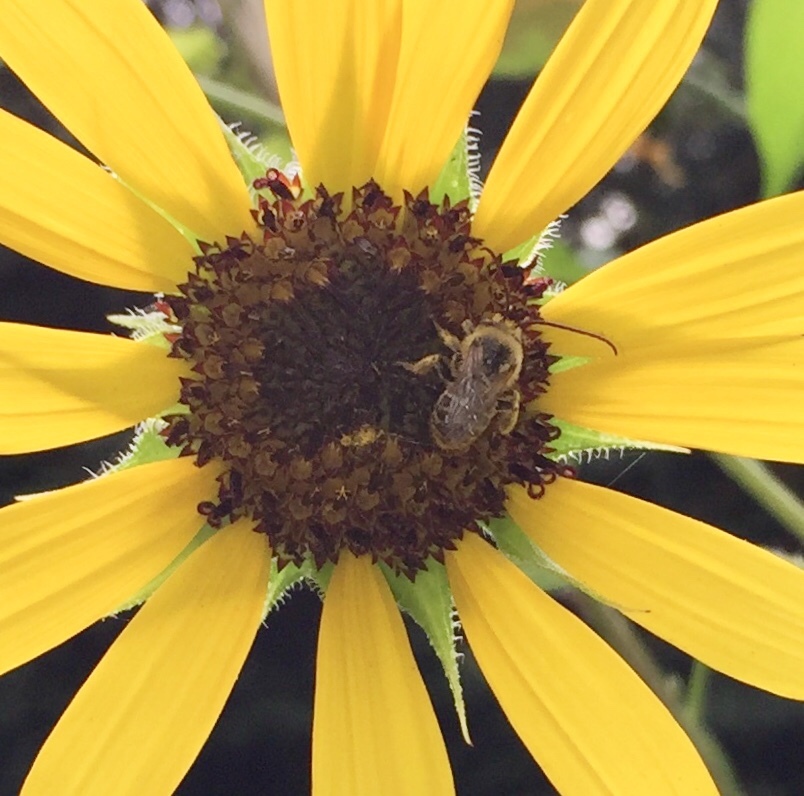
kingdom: Animalia
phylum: Arthropoda
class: Insecta
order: Hymenoptera
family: Apidae
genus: Melissodes
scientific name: Melissodes trinodis
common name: Dark-veined longhorn
